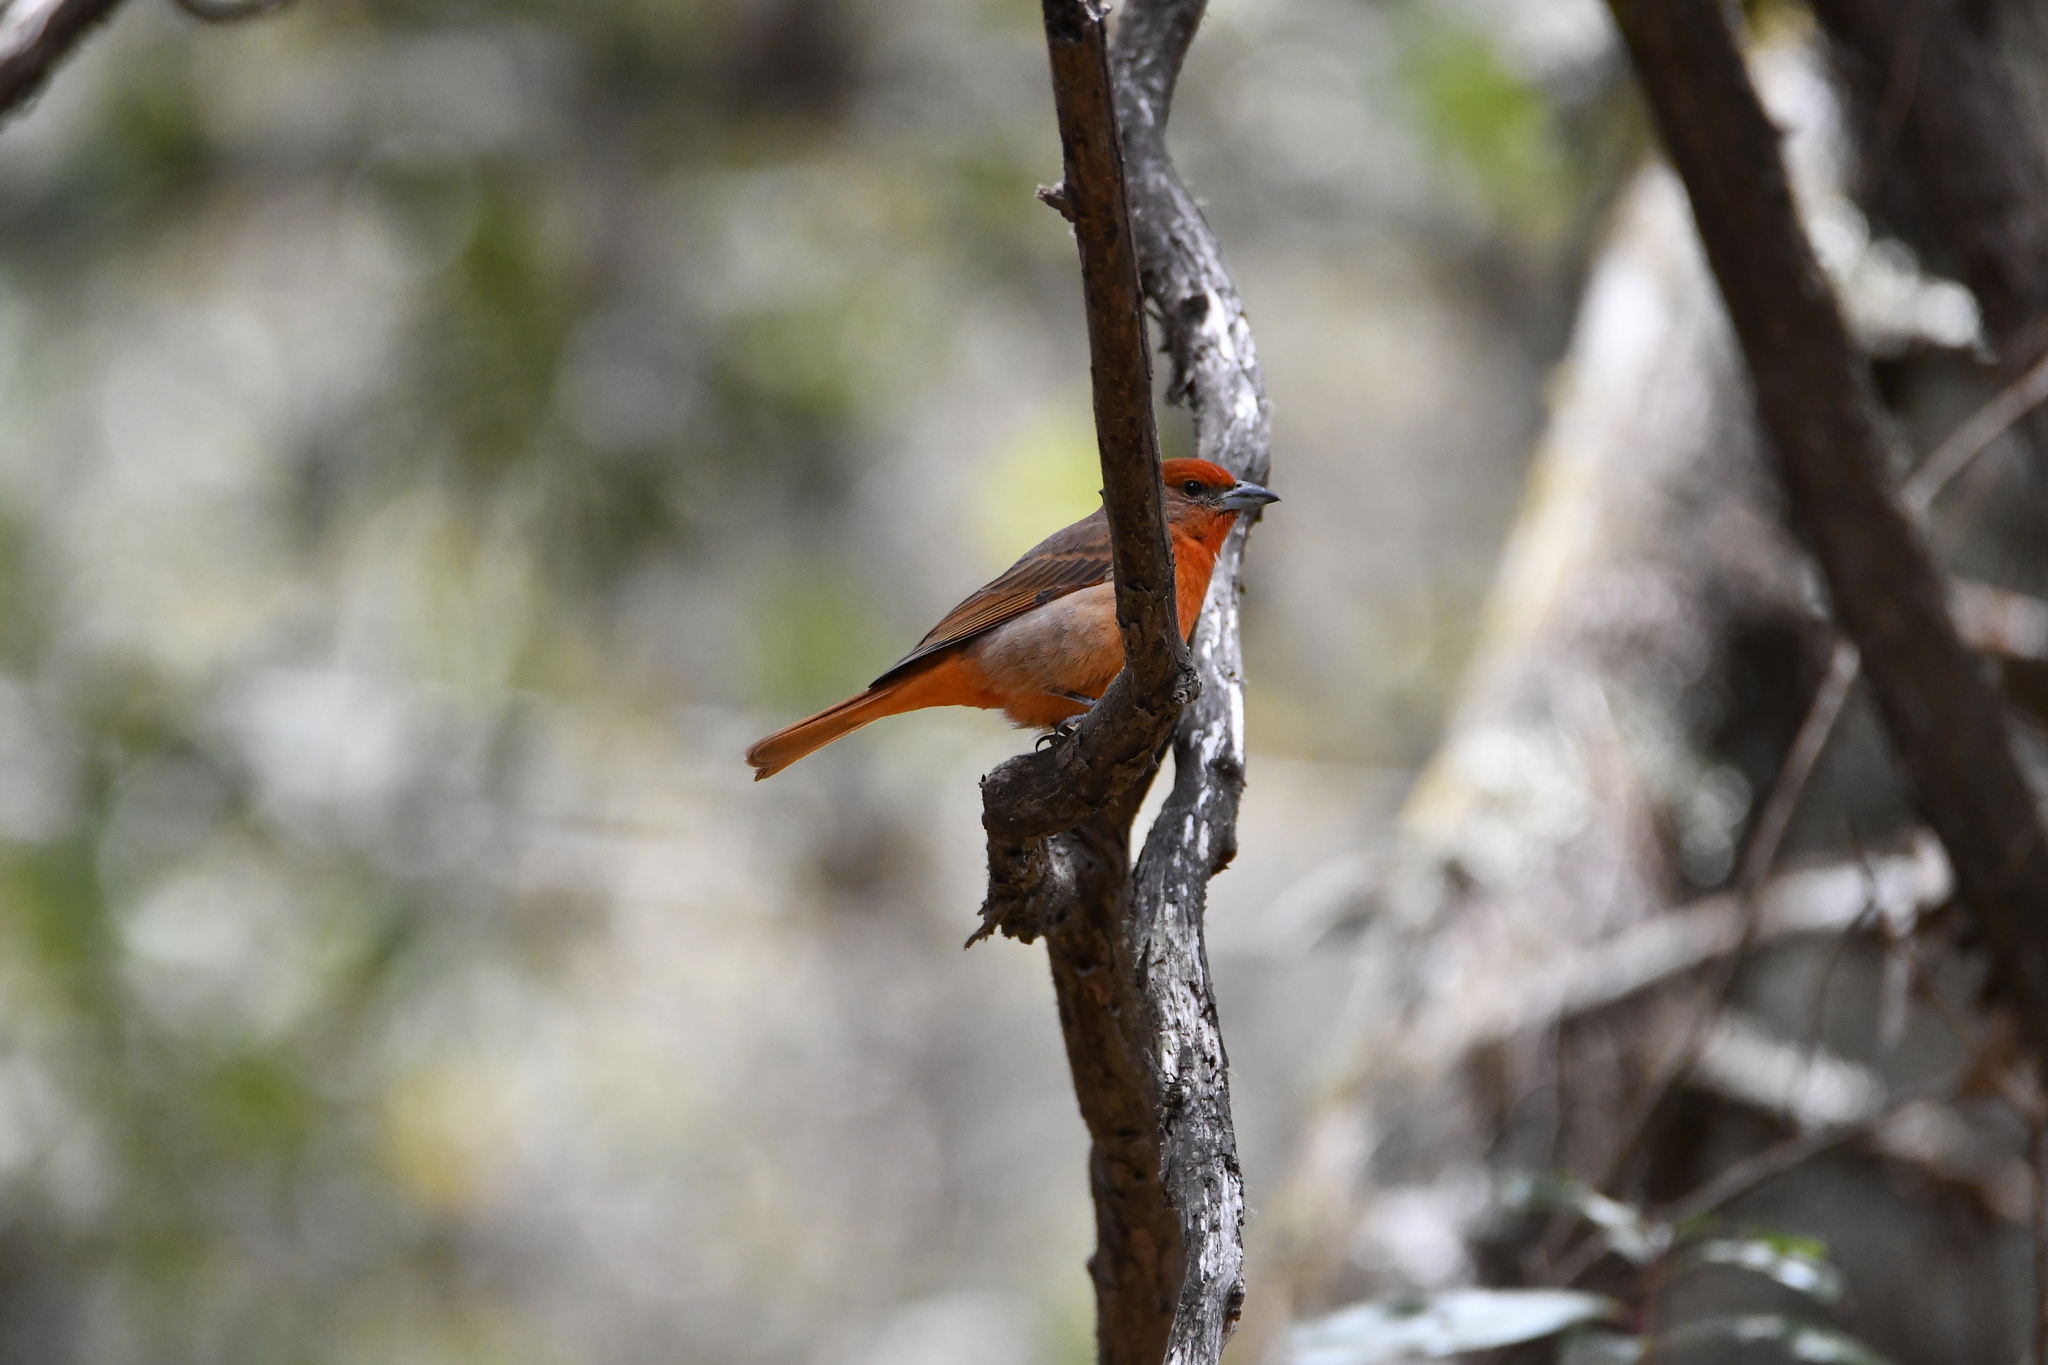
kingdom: Animalia
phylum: Chordata
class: Aves
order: Passeriformes
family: Cardinalidae
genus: Piranga
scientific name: Piranga flava
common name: Red tanager
